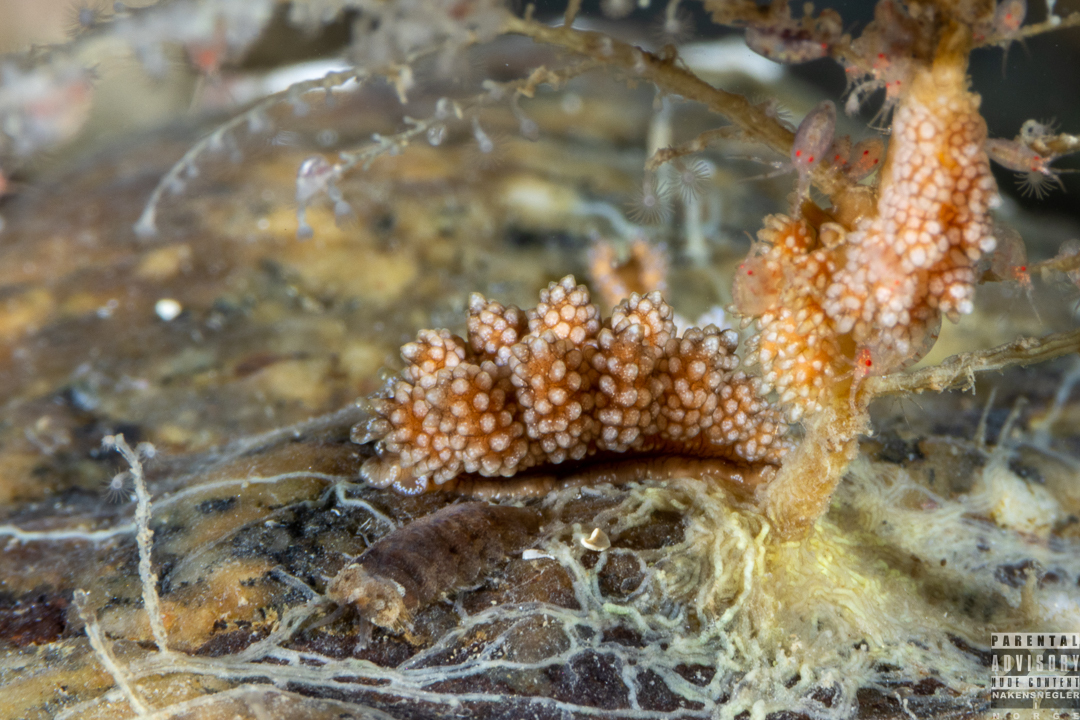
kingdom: Animalia
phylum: Mollusca
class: Gastropoda
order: Nudibranchia
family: Dotidae
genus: Doto
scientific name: Doto fragilis
